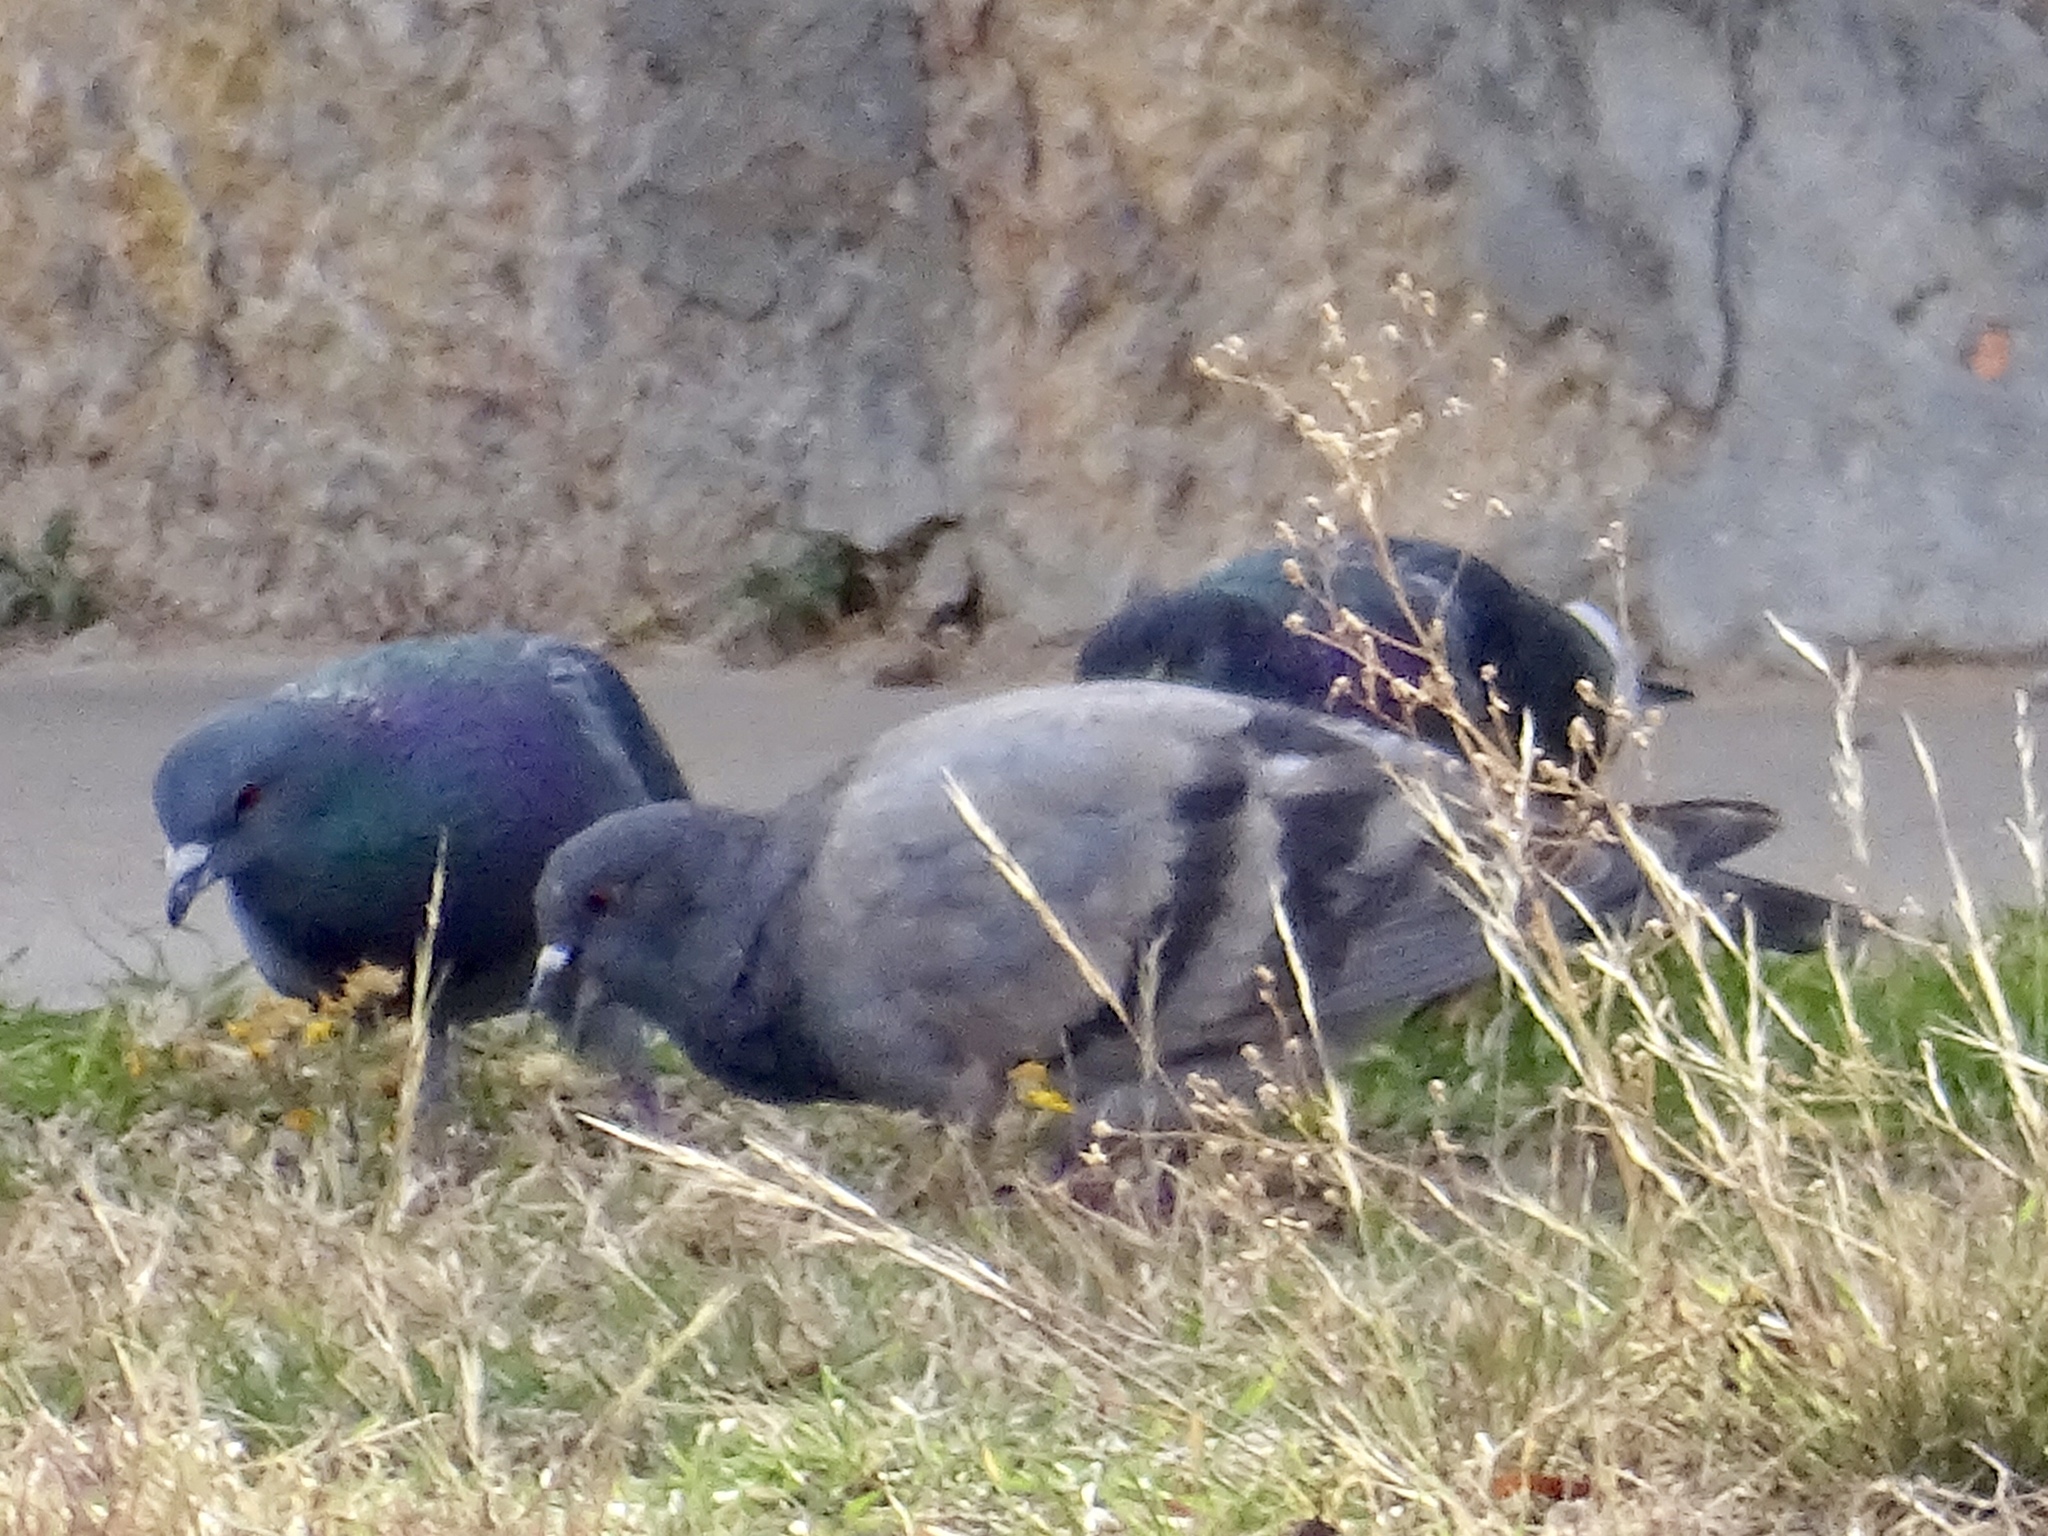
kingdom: Animalia
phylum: Chordata
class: Aves
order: Columbiformes
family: Columbidae
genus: Columba
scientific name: Columba livia
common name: Rock pigeon
